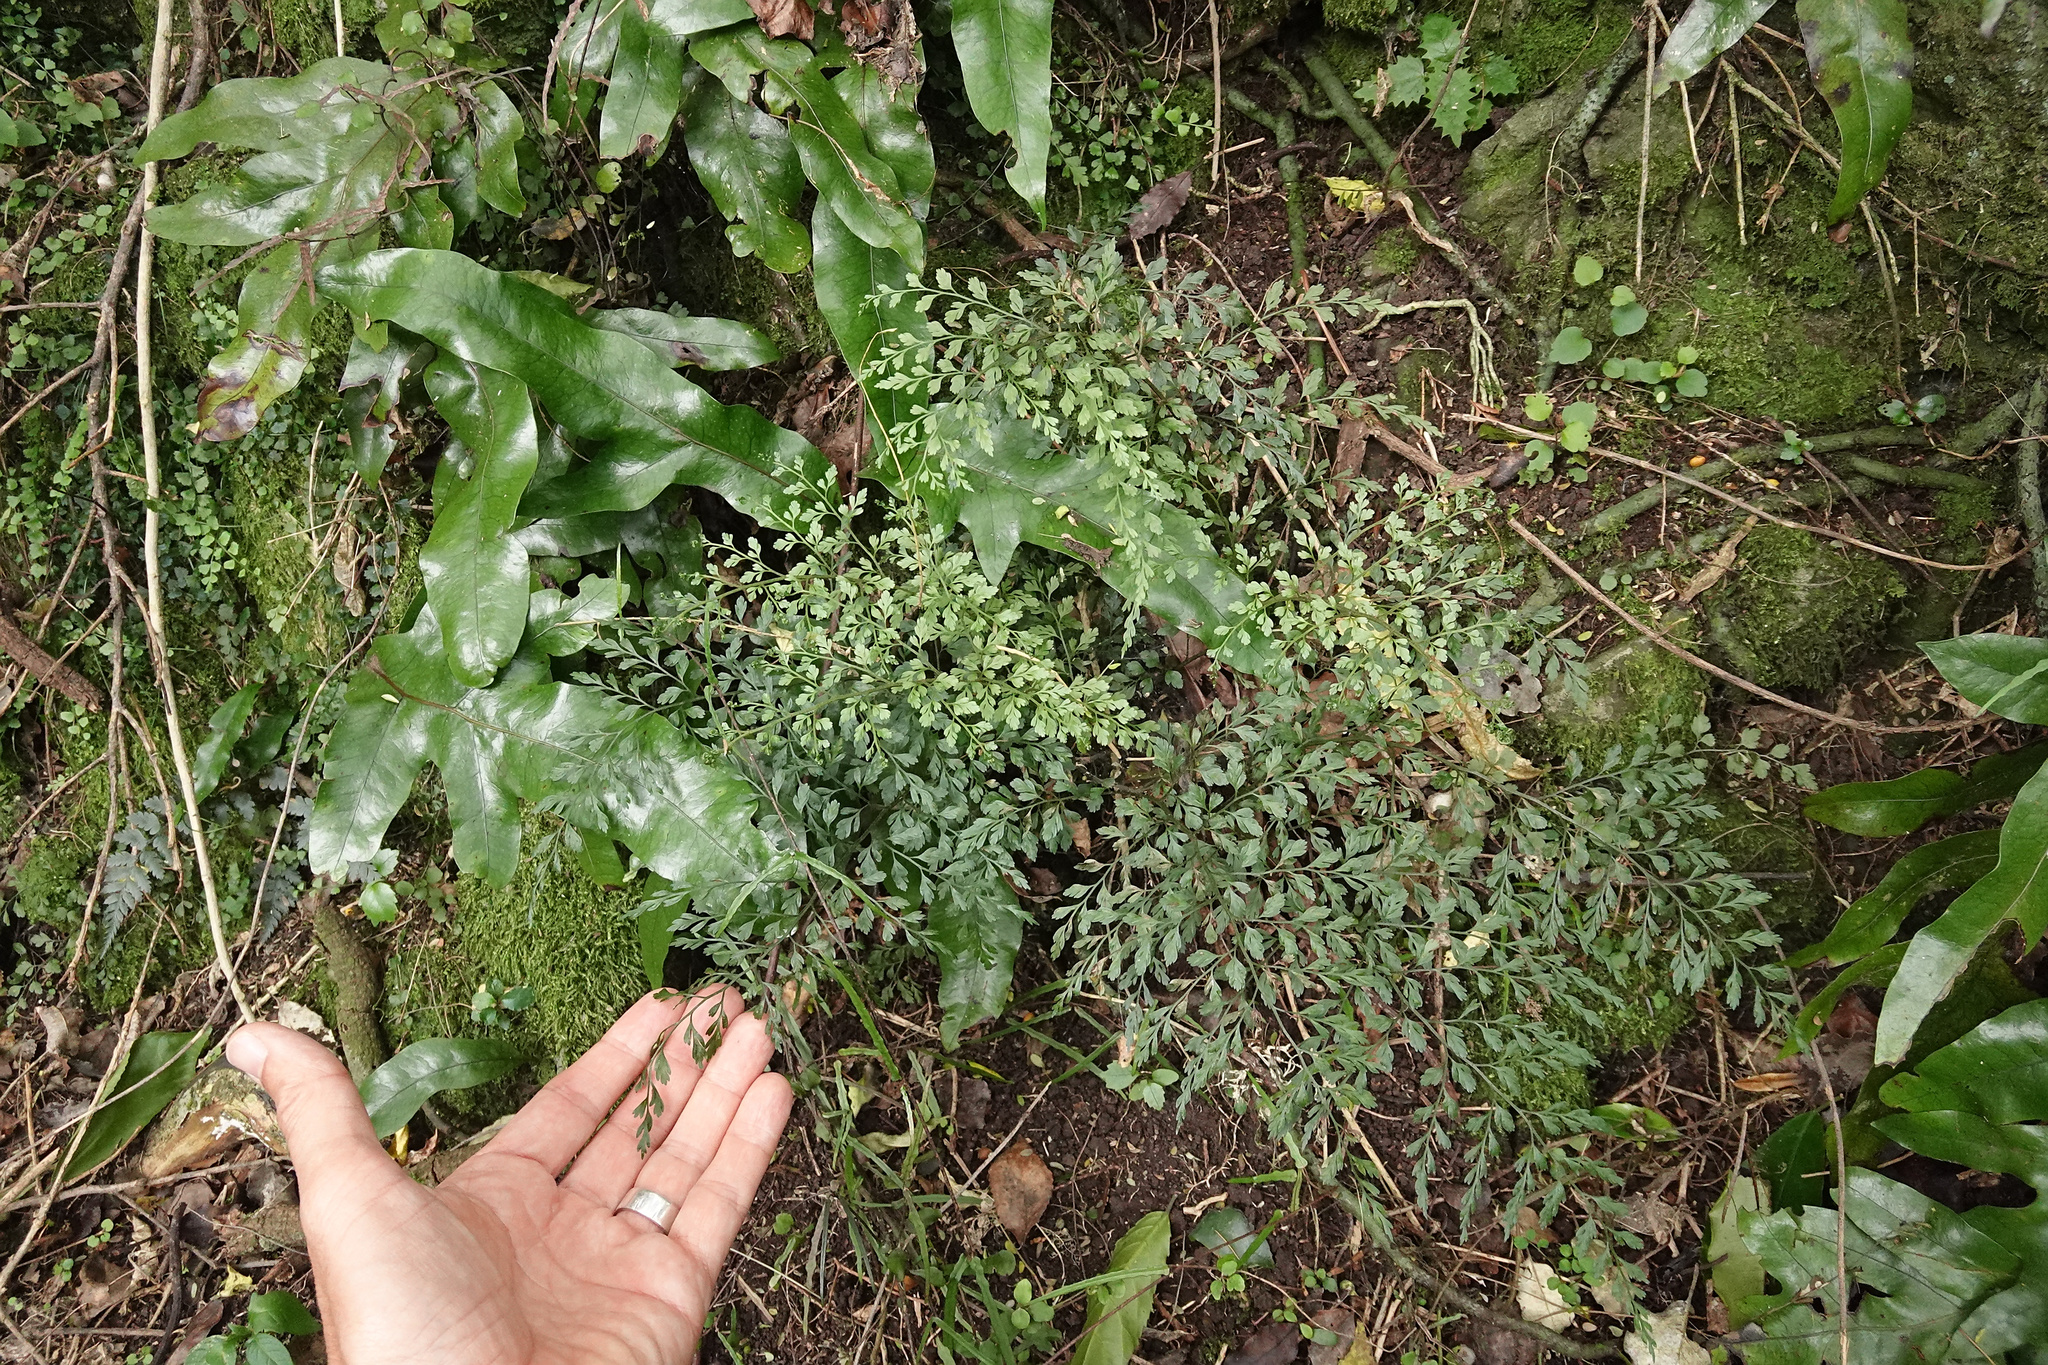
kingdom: Plantae
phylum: Tracheophyta
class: Polypodiopsida
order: Polypodiales
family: Aspleniaceae
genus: Asplenium
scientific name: Asplenium hookerianum
